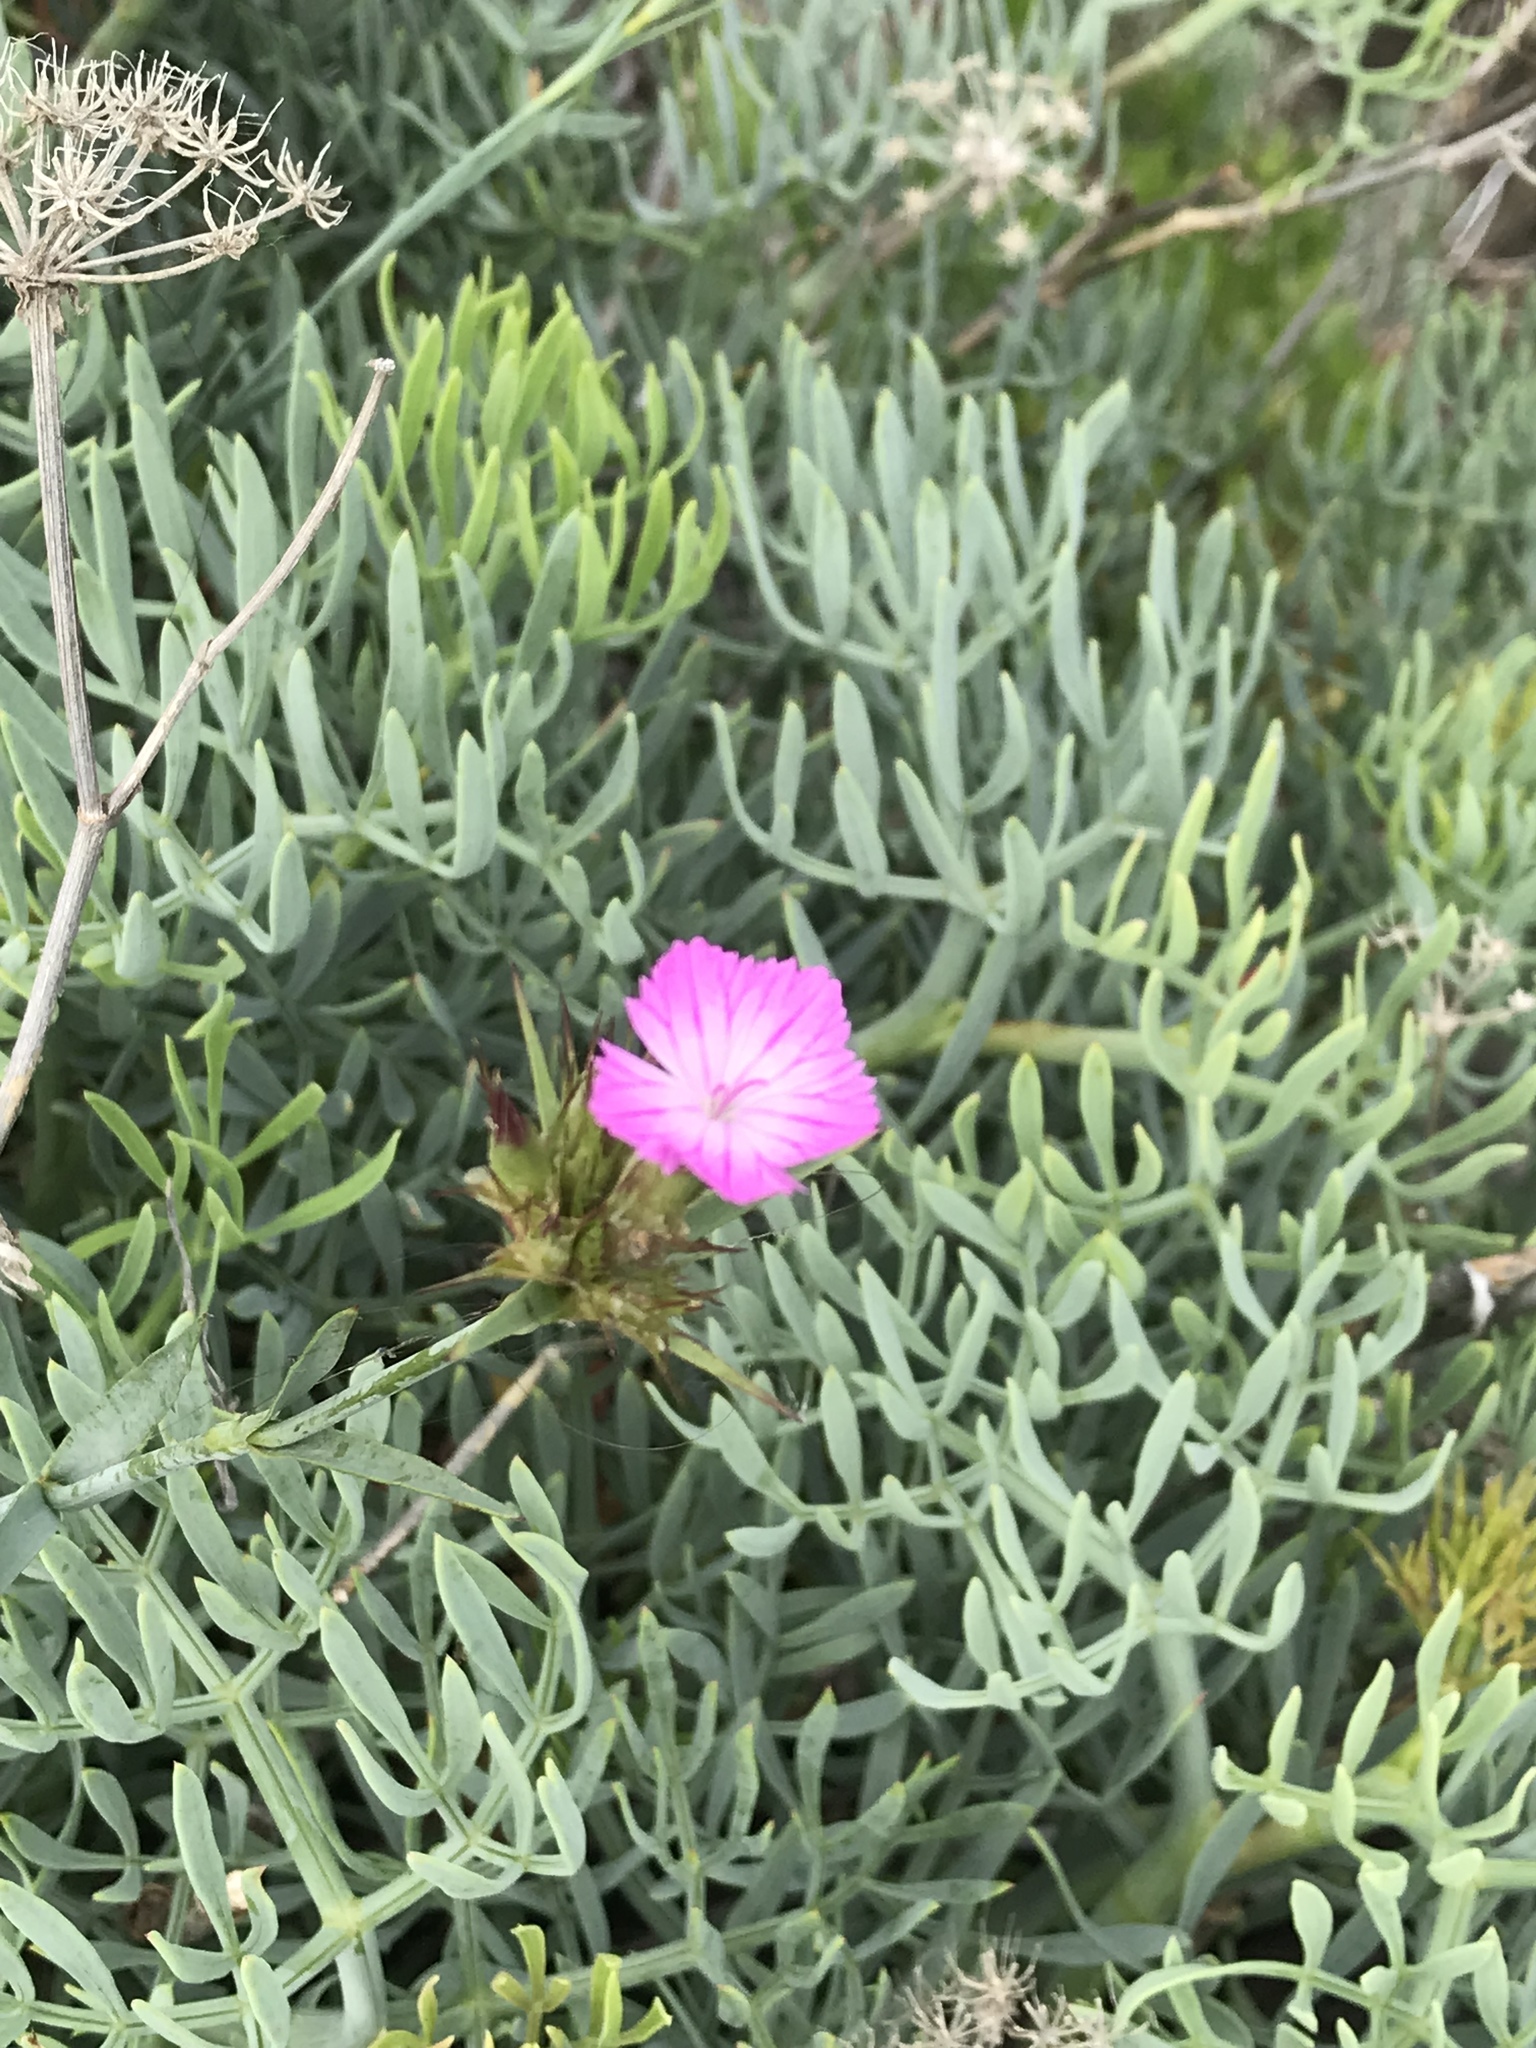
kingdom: Plantae
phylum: Tracheophyta
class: Magnoliopsida
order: Apiales
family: Apiaceae
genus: Crithmum
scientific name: Crithmum maritimum
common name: Rock samphire
